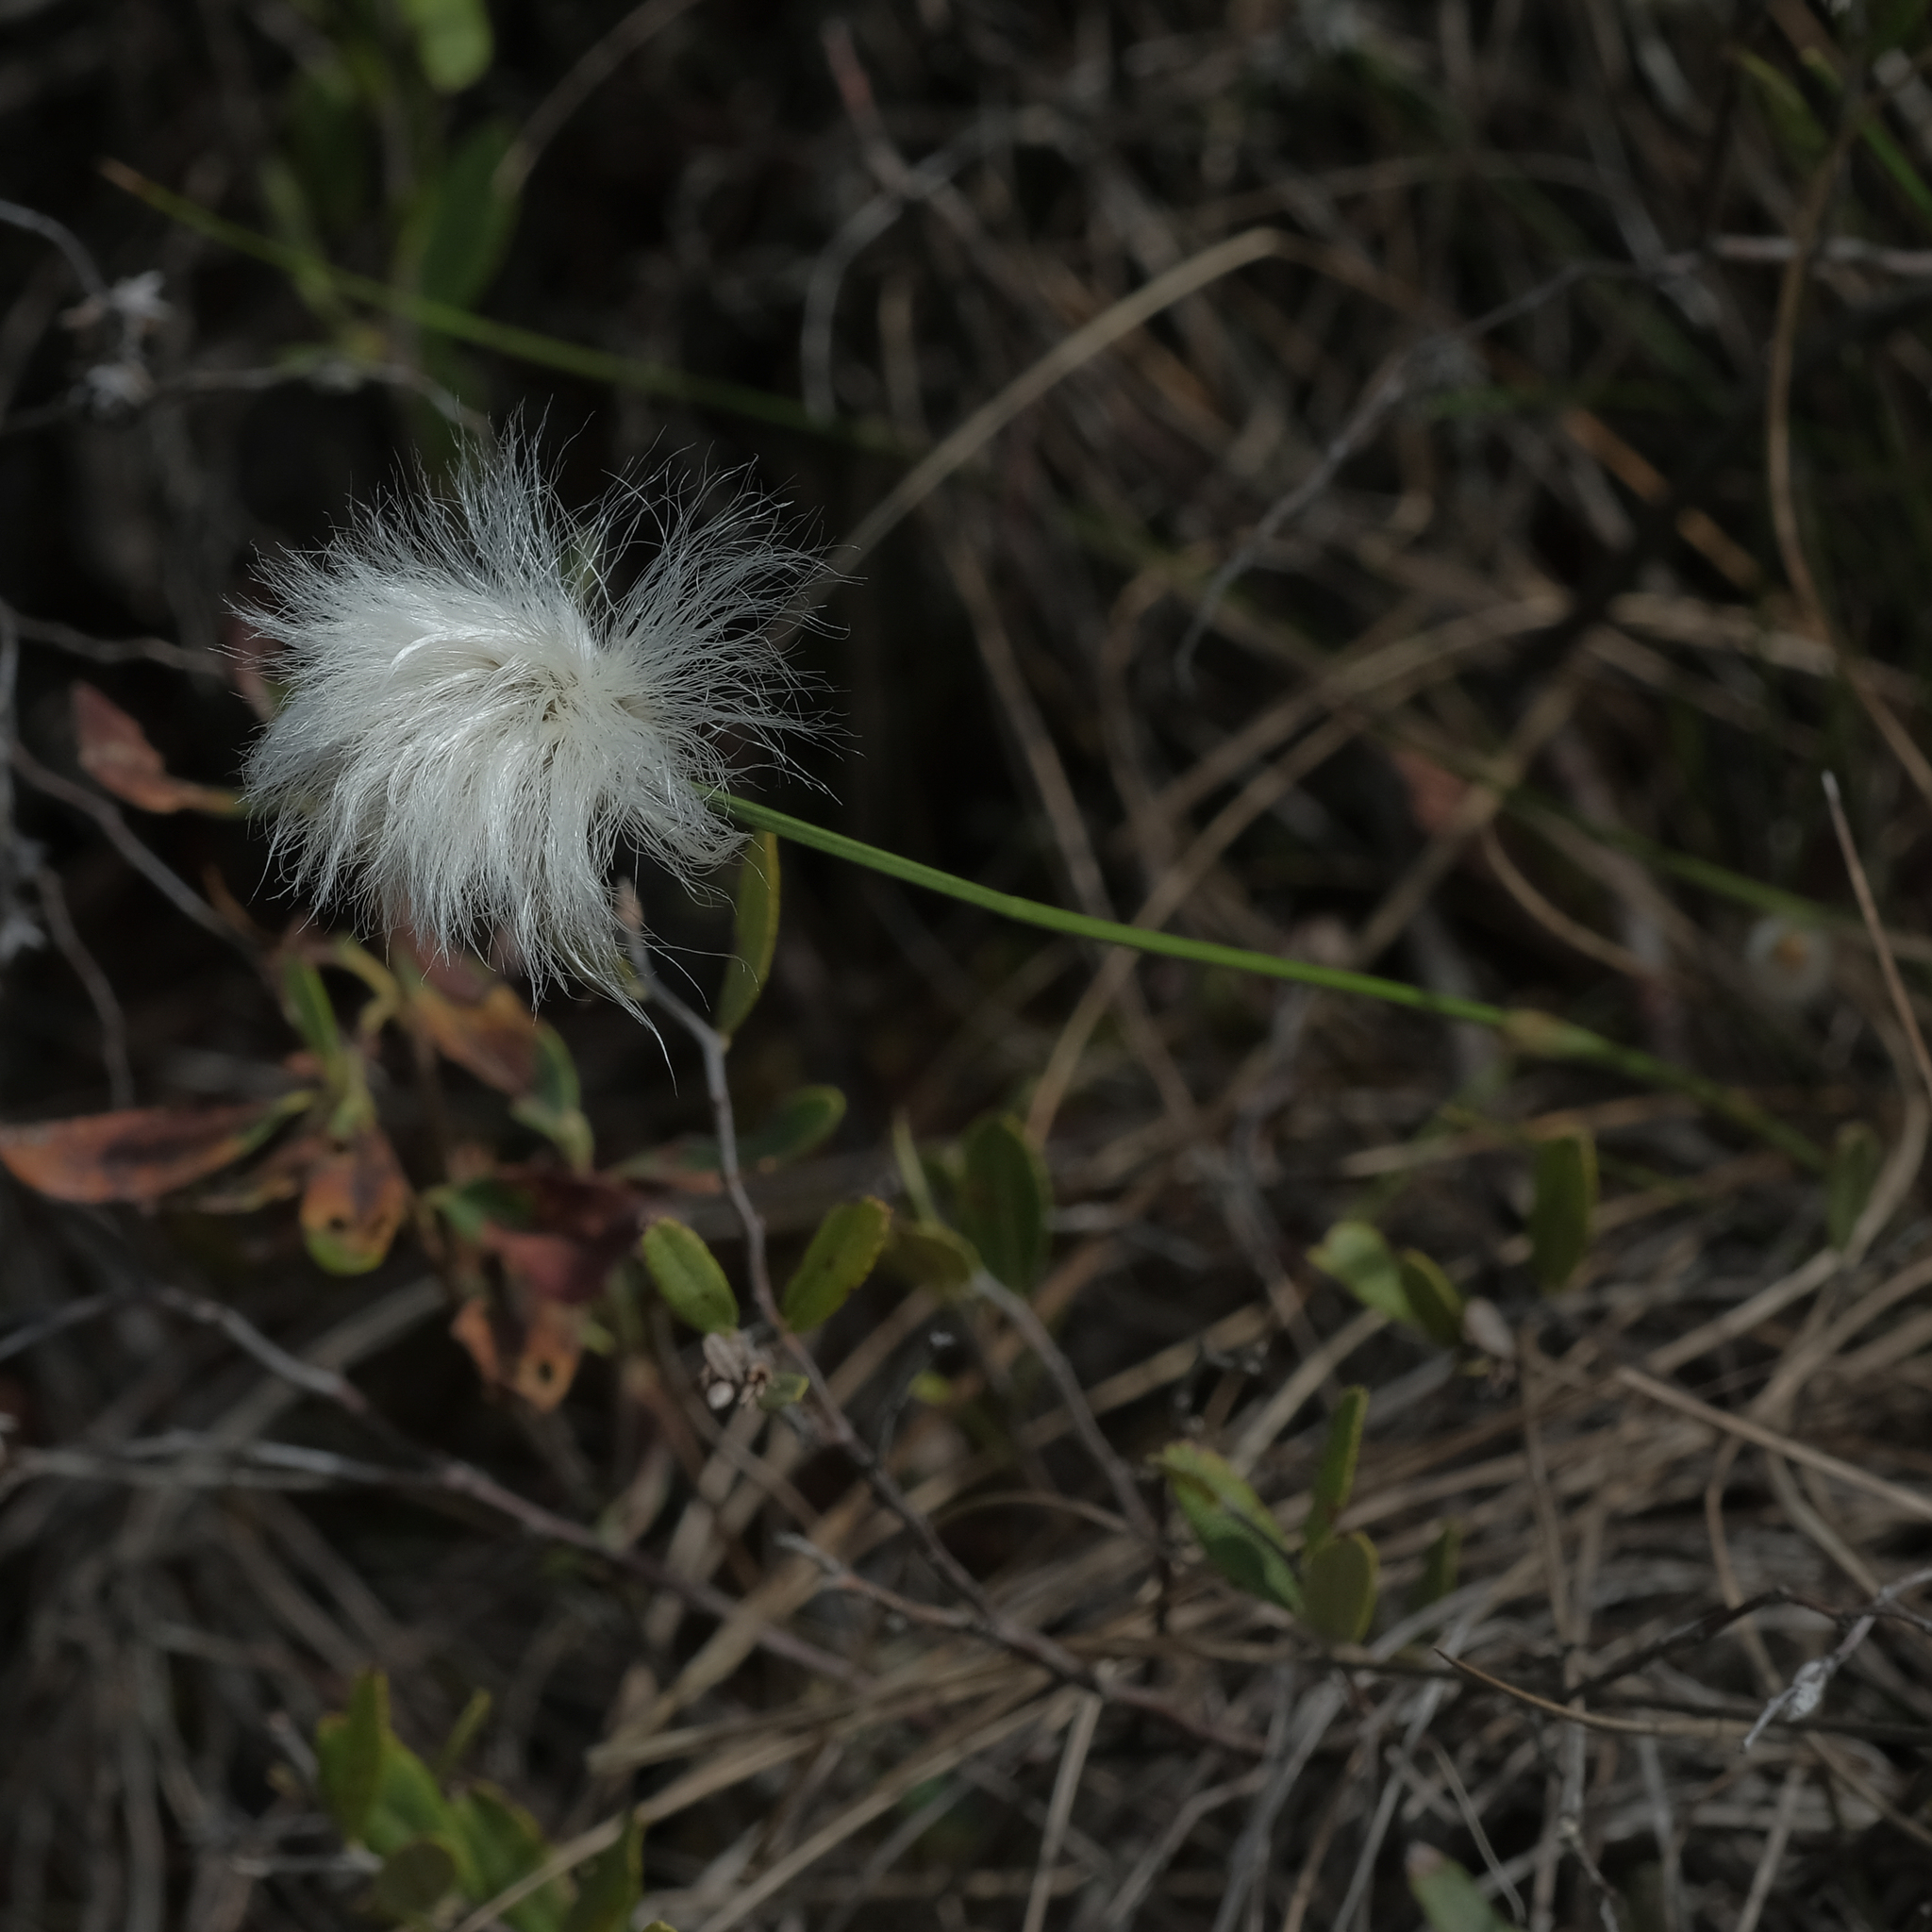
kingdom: Plantae
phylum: Tracheophyta
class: Liliopsida
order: Poales
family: Cyperaceae
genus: Eriophorum
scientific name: Eriophorum vaginatum
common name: Hare's-tail cottongrass
